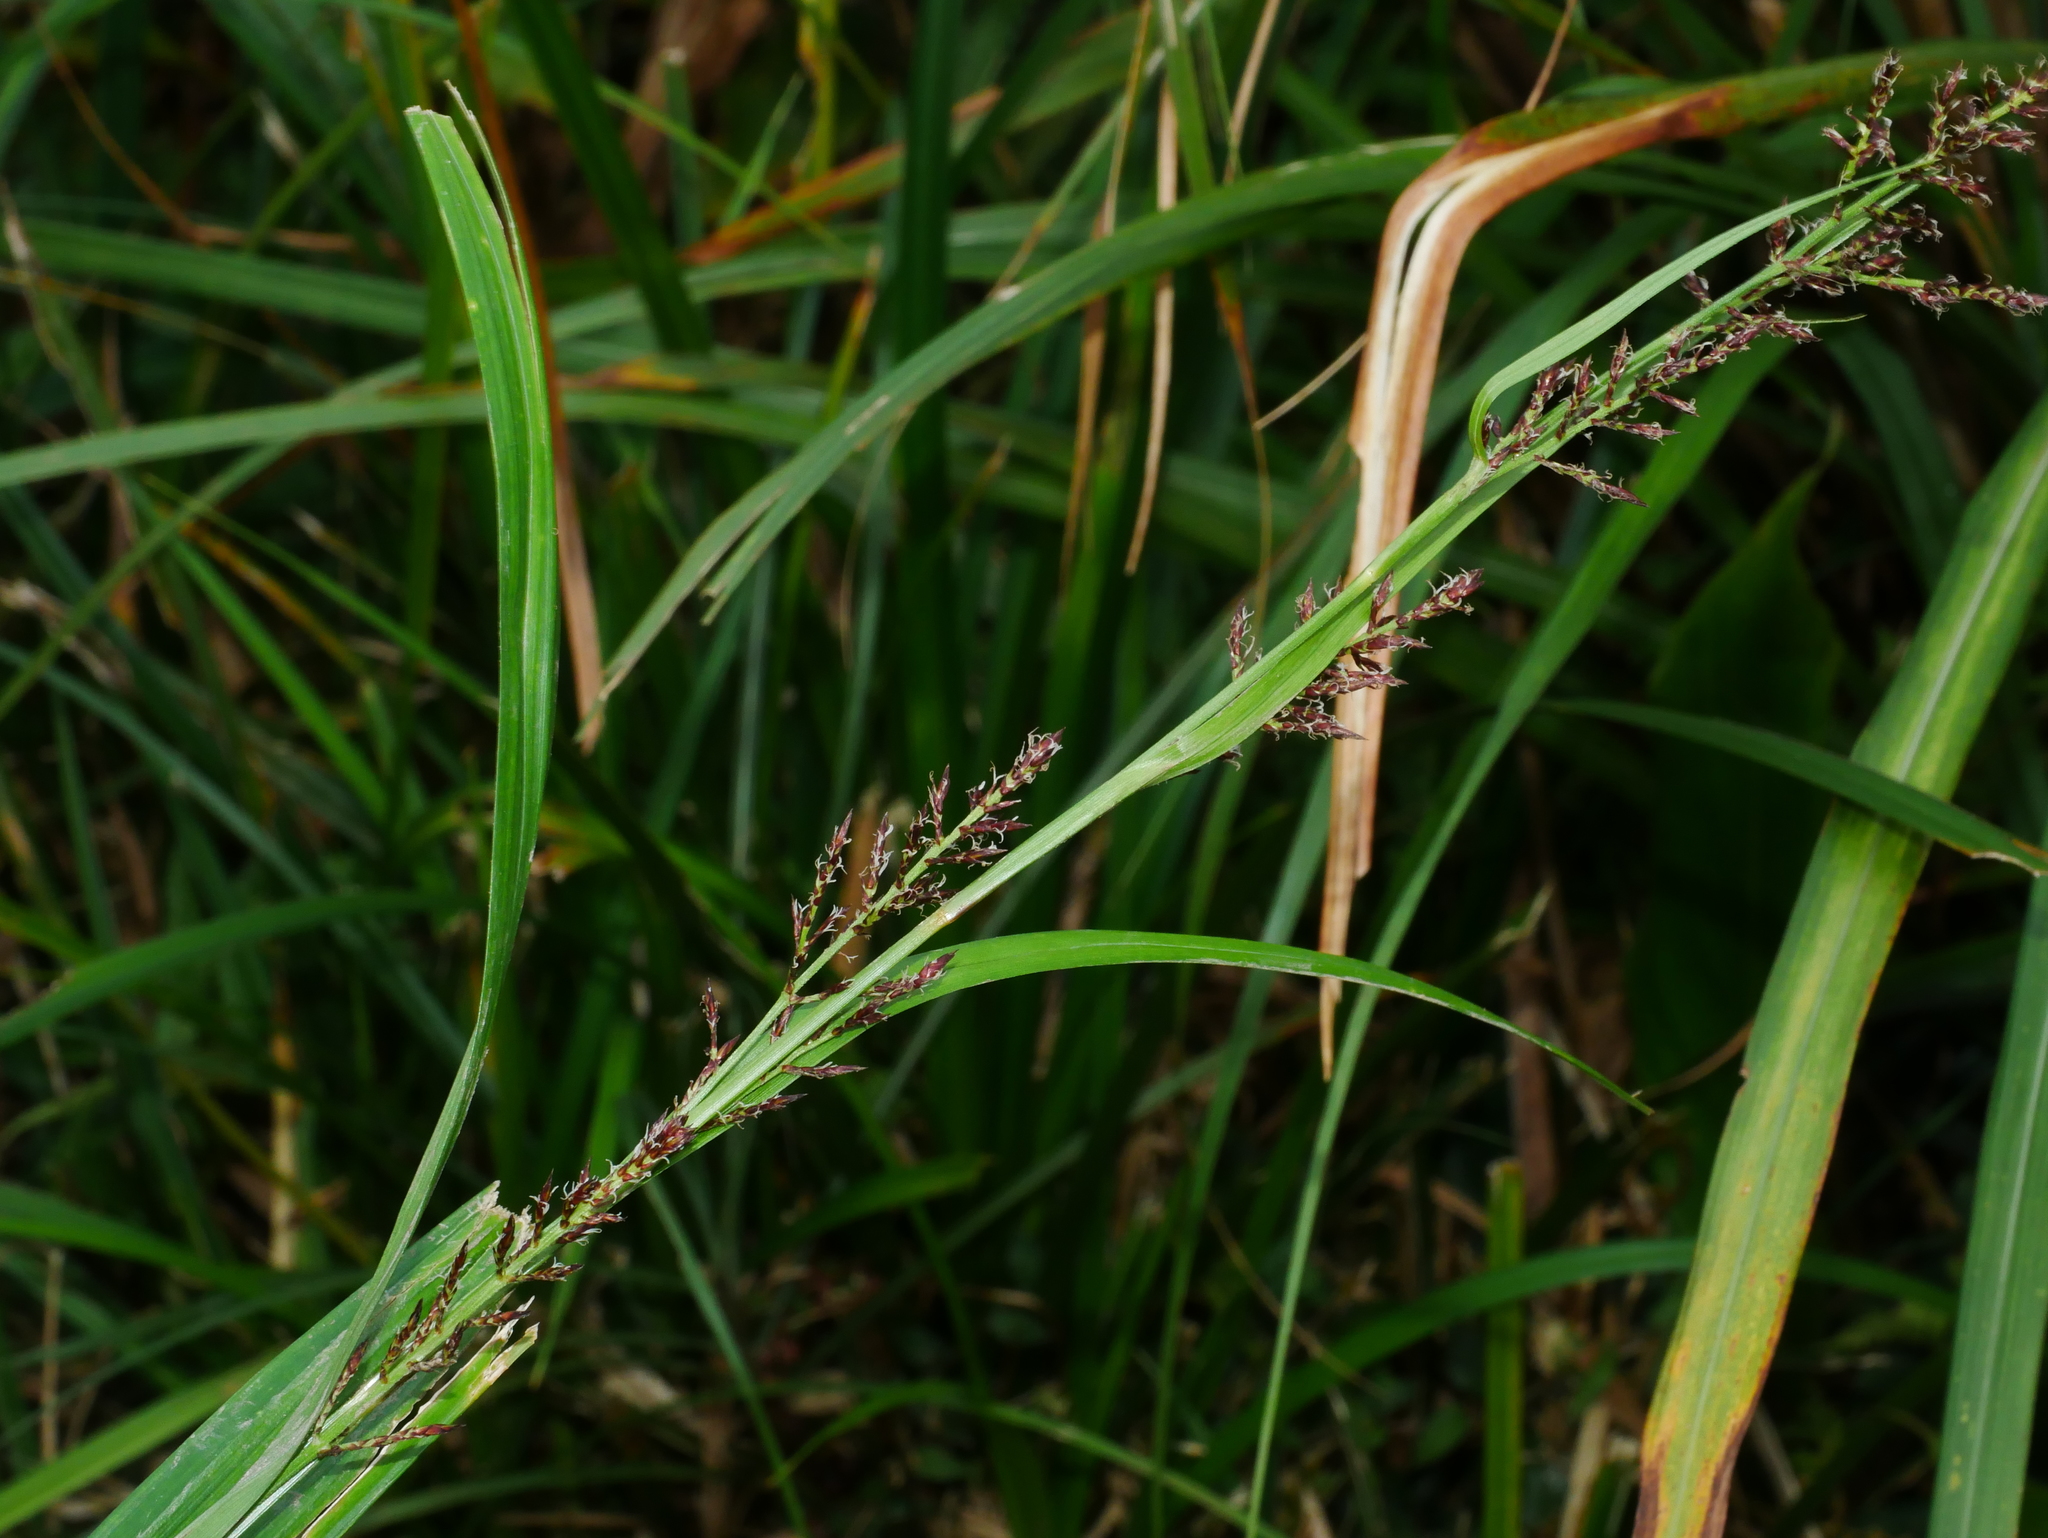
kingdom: Plantae
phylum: Tracheophyta
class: Liliopsida
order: Poales
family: Cyperaceae
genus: Carex
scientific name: Carex filicina
